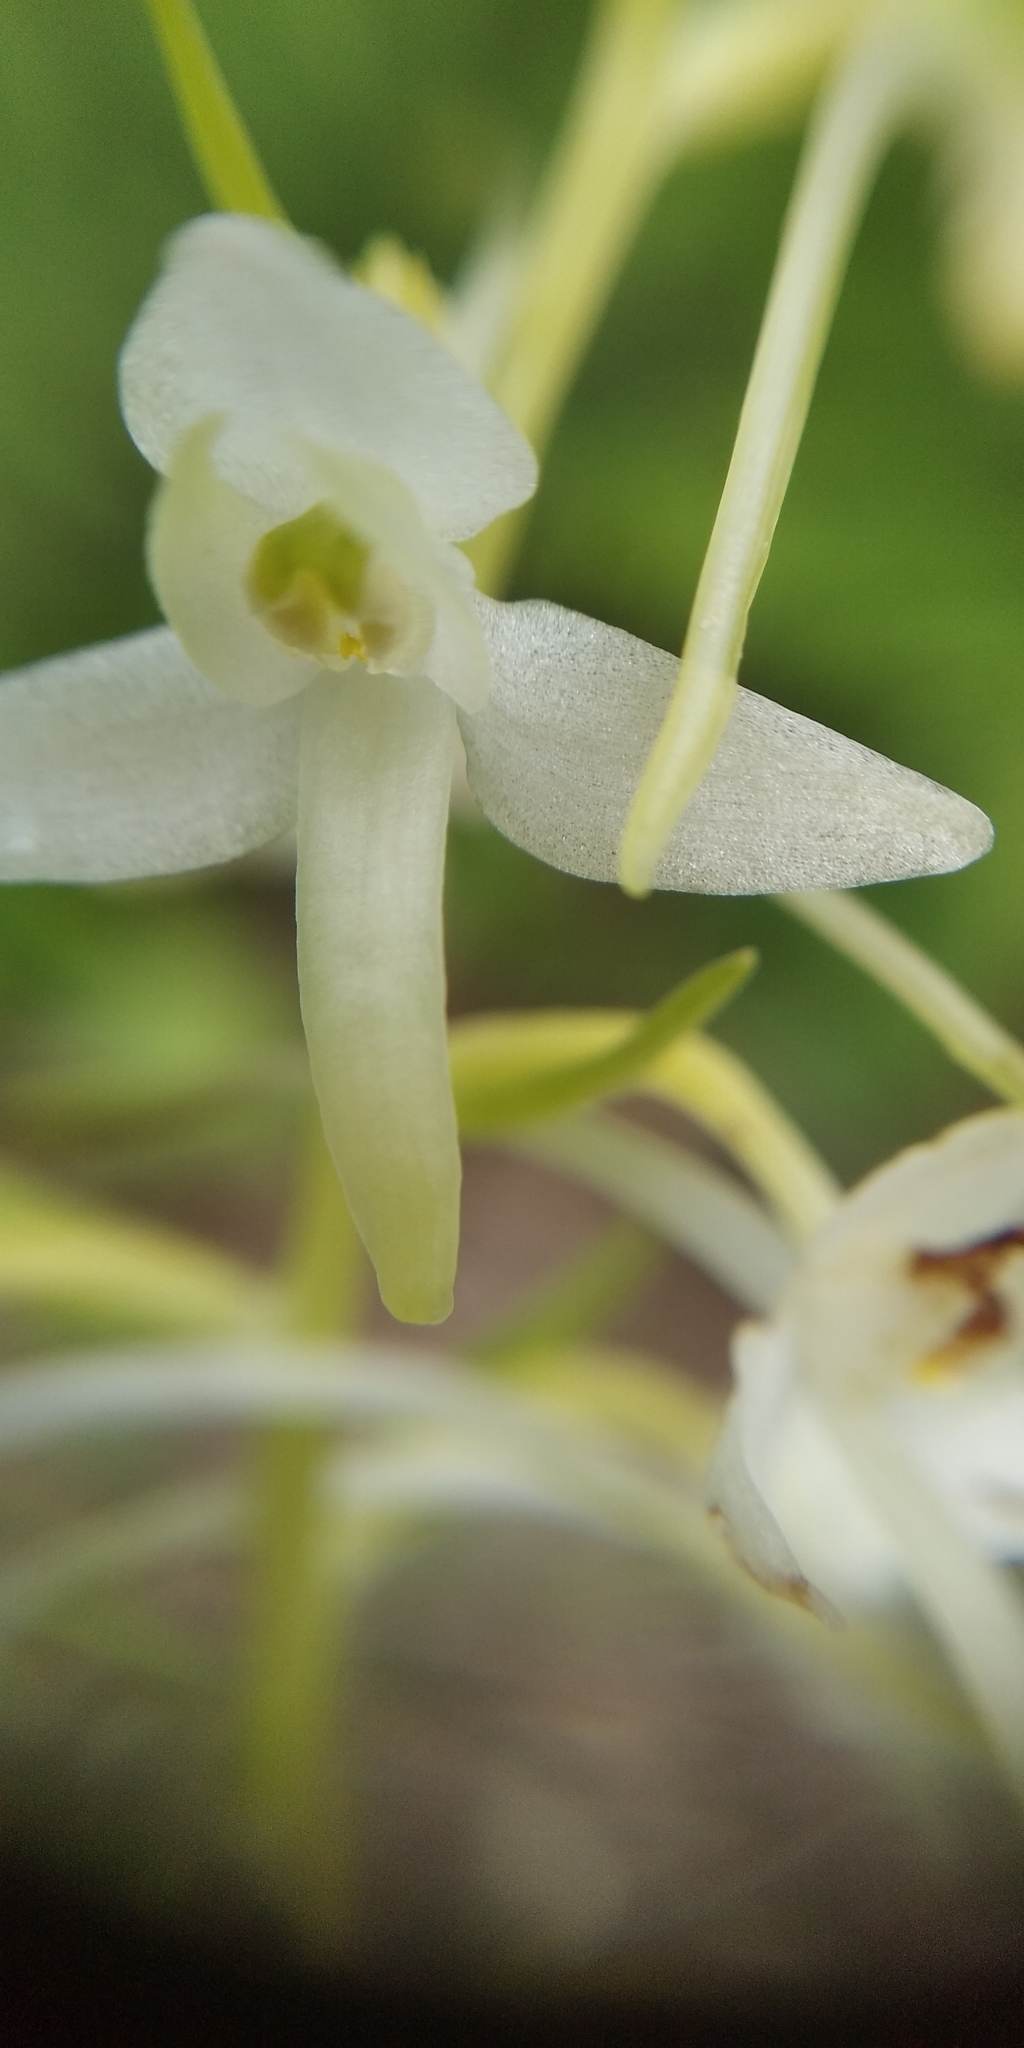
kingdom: Plantae
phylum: Tracheophyta
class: Liliopsida
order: Asparagales
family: Orchidaceae
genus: Platanthera
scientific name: Platanthera bifolia
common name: Lesser butterfly-orchid
